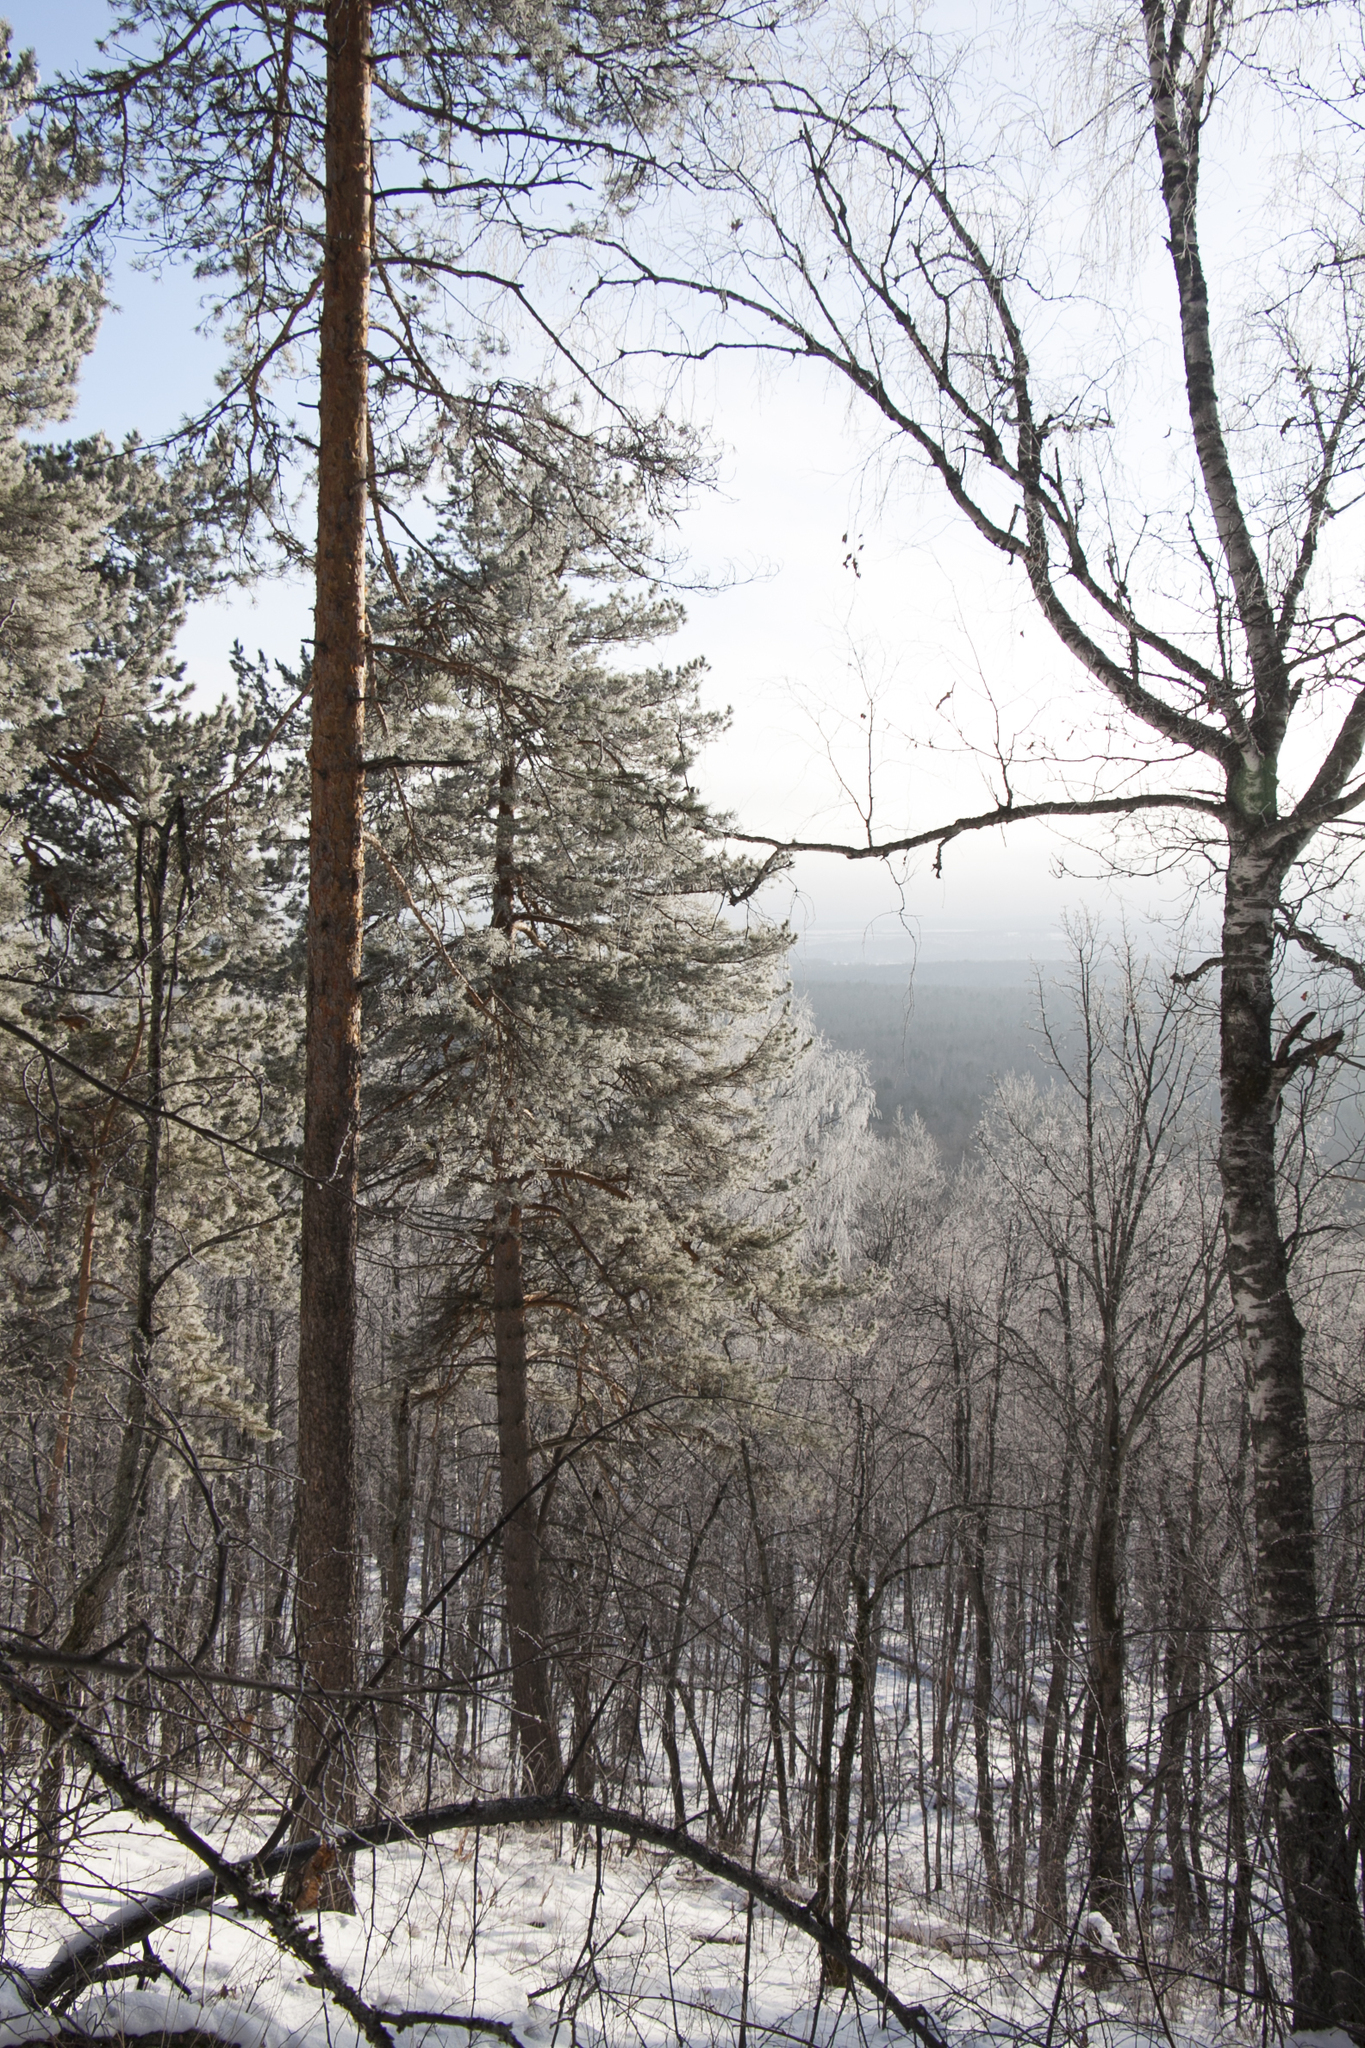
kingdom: Plantae
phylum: Tracheophyta
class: Pinopsida
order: Pinales
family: Pinaceae
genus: Pinus
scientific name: Pinus sylvestris
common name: Scots pine
